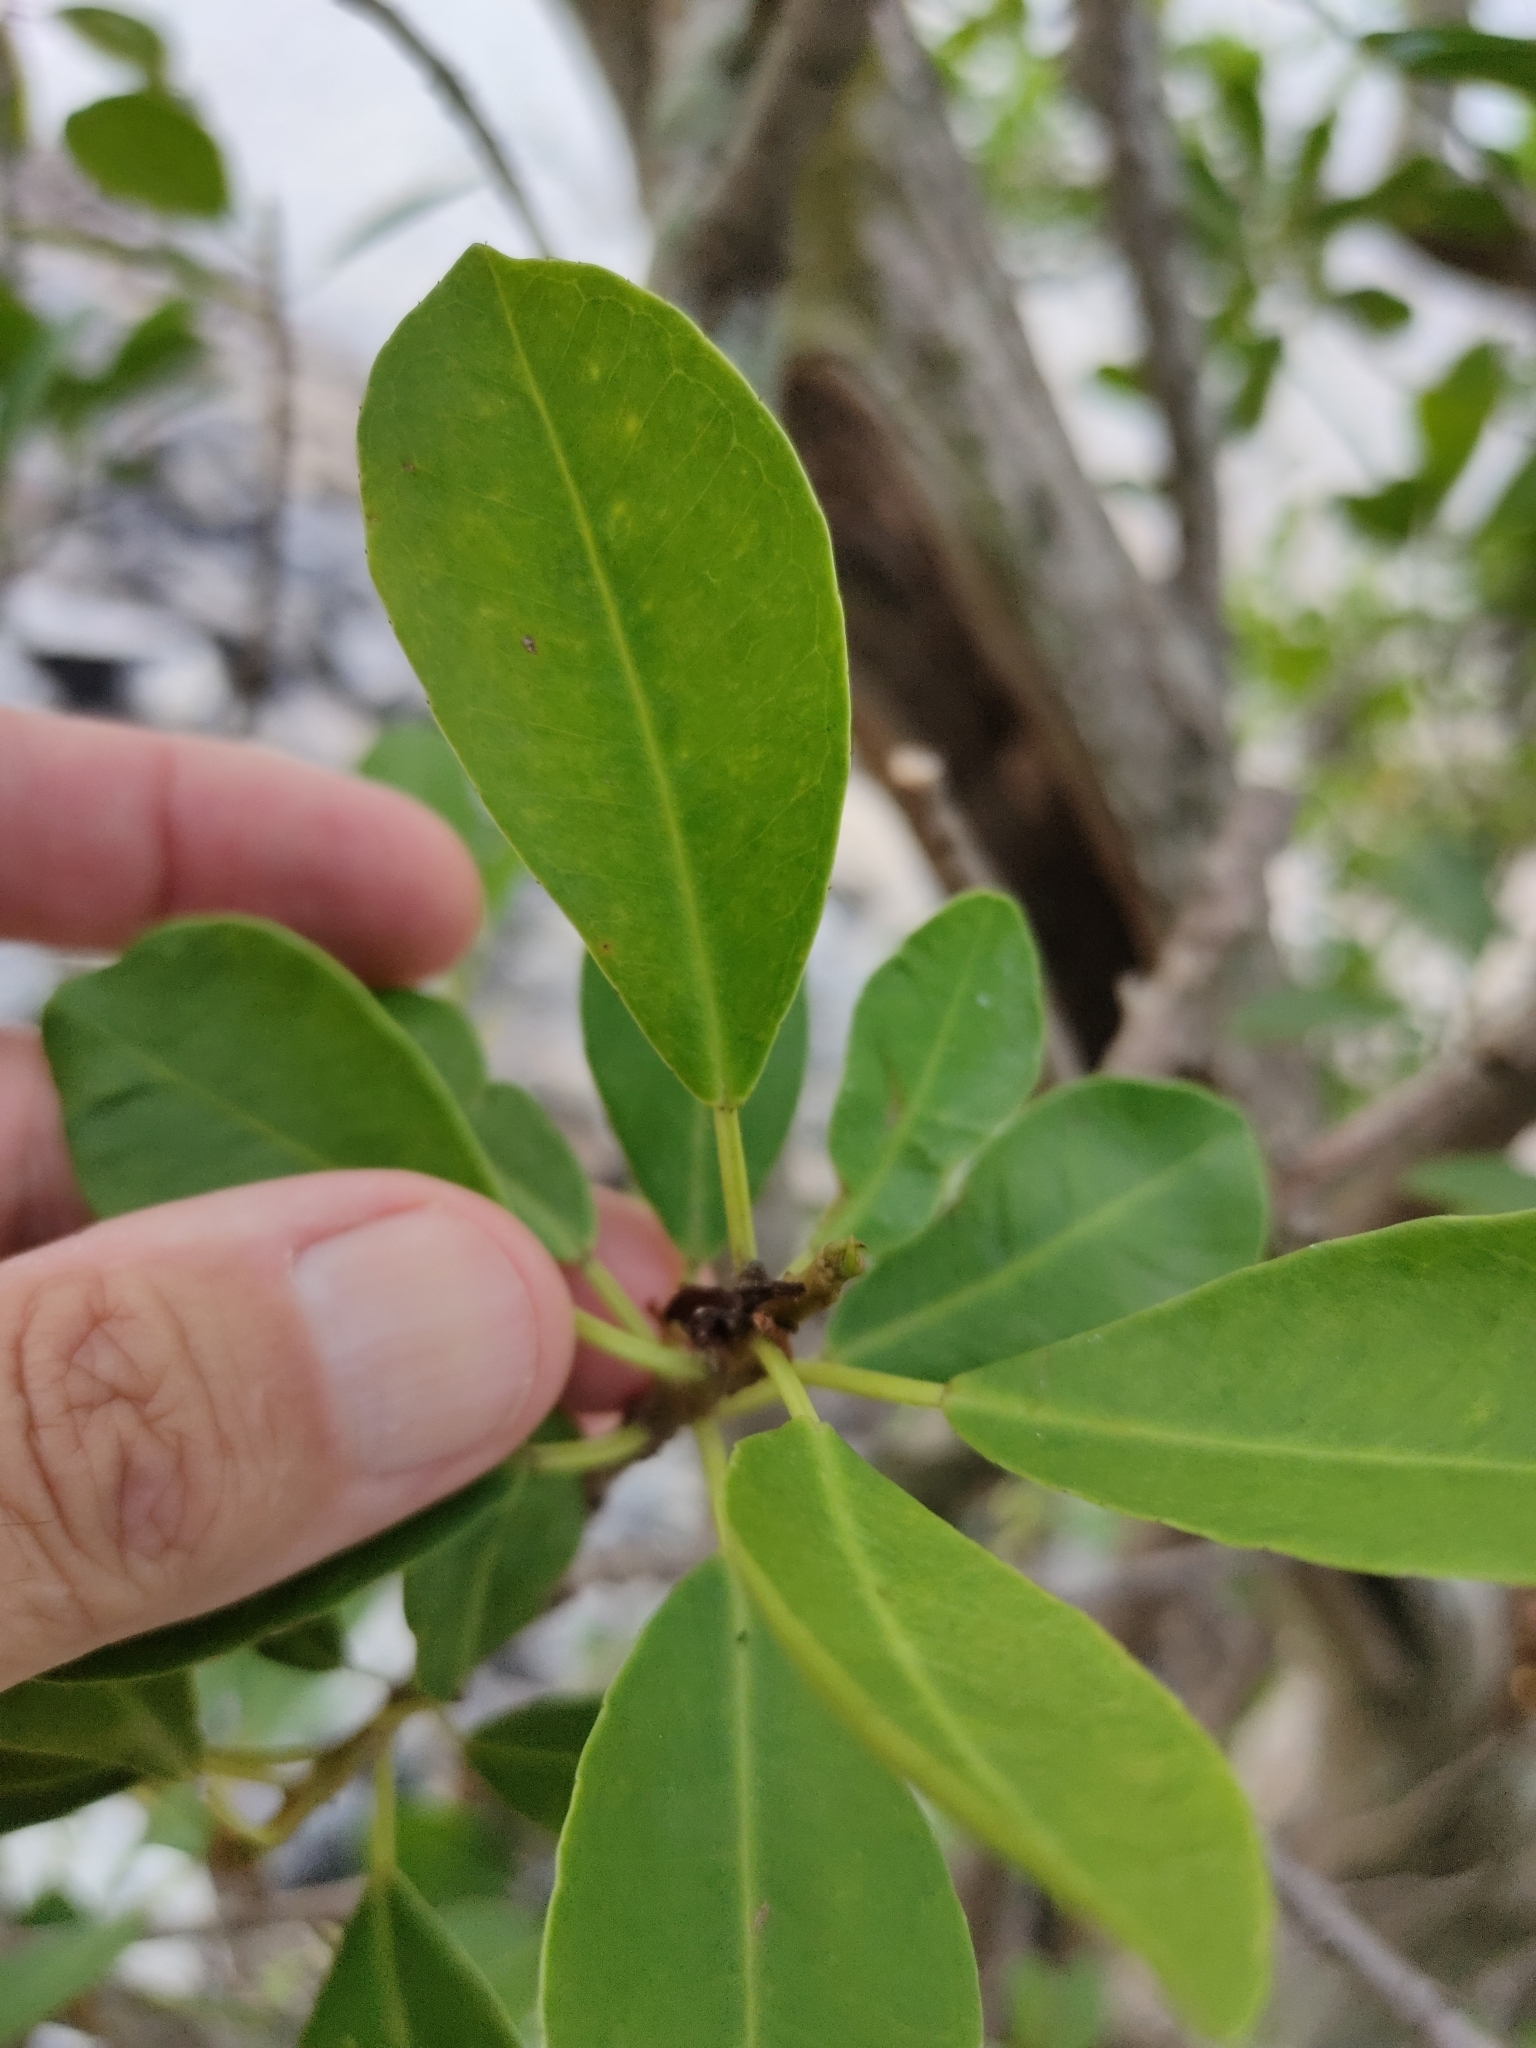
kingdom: Plantae
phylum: Tracheophyta
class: Magnoliopsida
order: Malpighiales
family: Euphorbiaceae
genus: Excoecaria
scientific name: Excoecaria agallocha
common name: River poisontree
